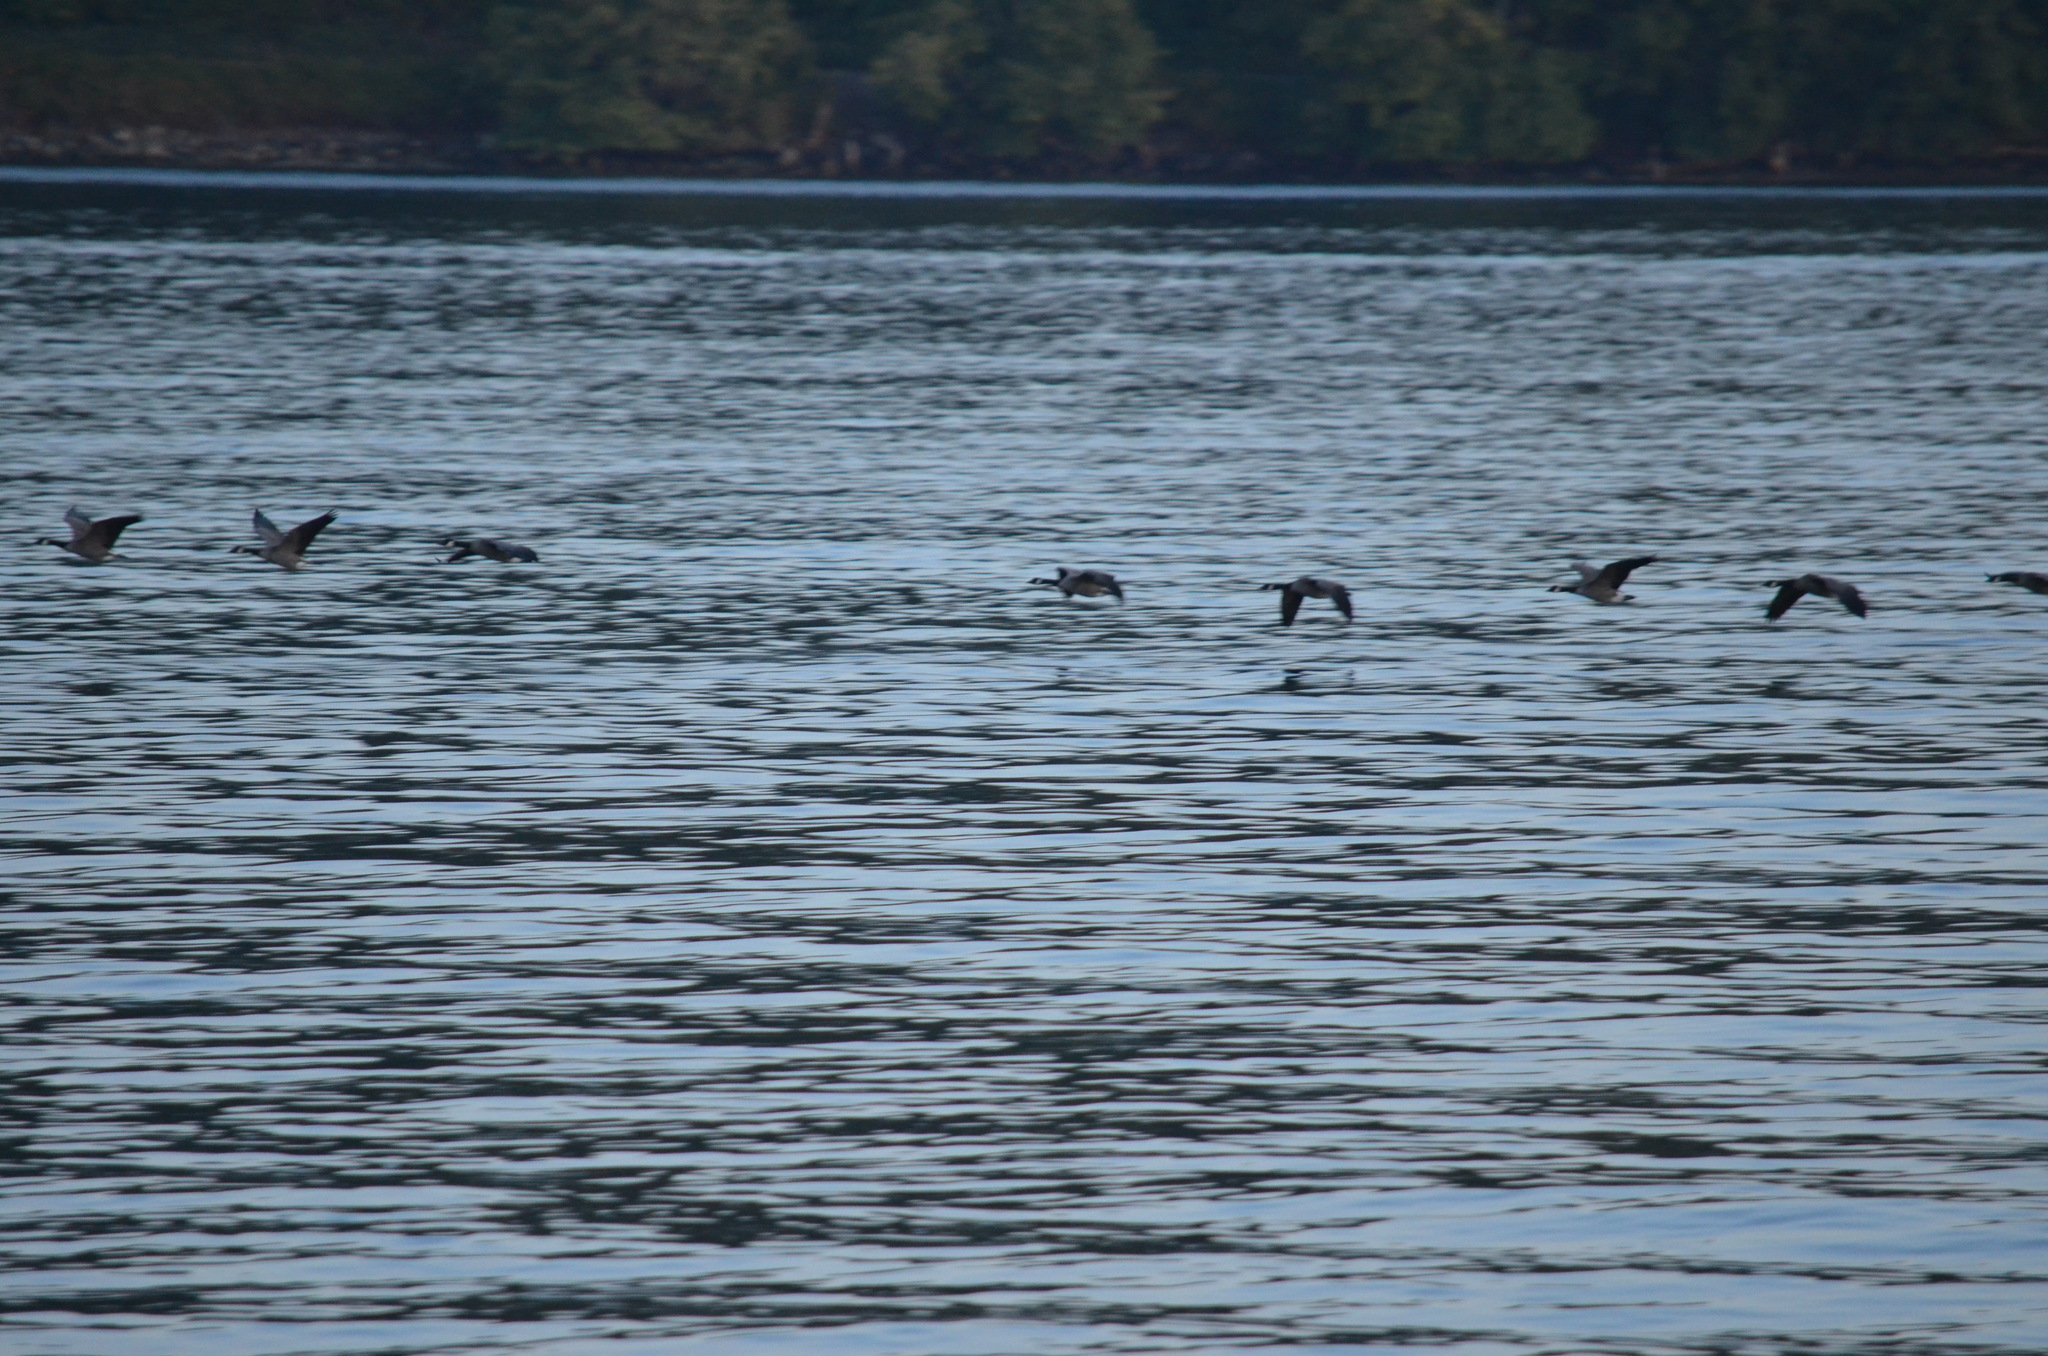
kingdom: Animalia
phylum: Chordata
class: Aves
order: Anseriformes
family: Anatidae
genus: Branta
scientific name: Branta canadensis
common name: Canada goose
